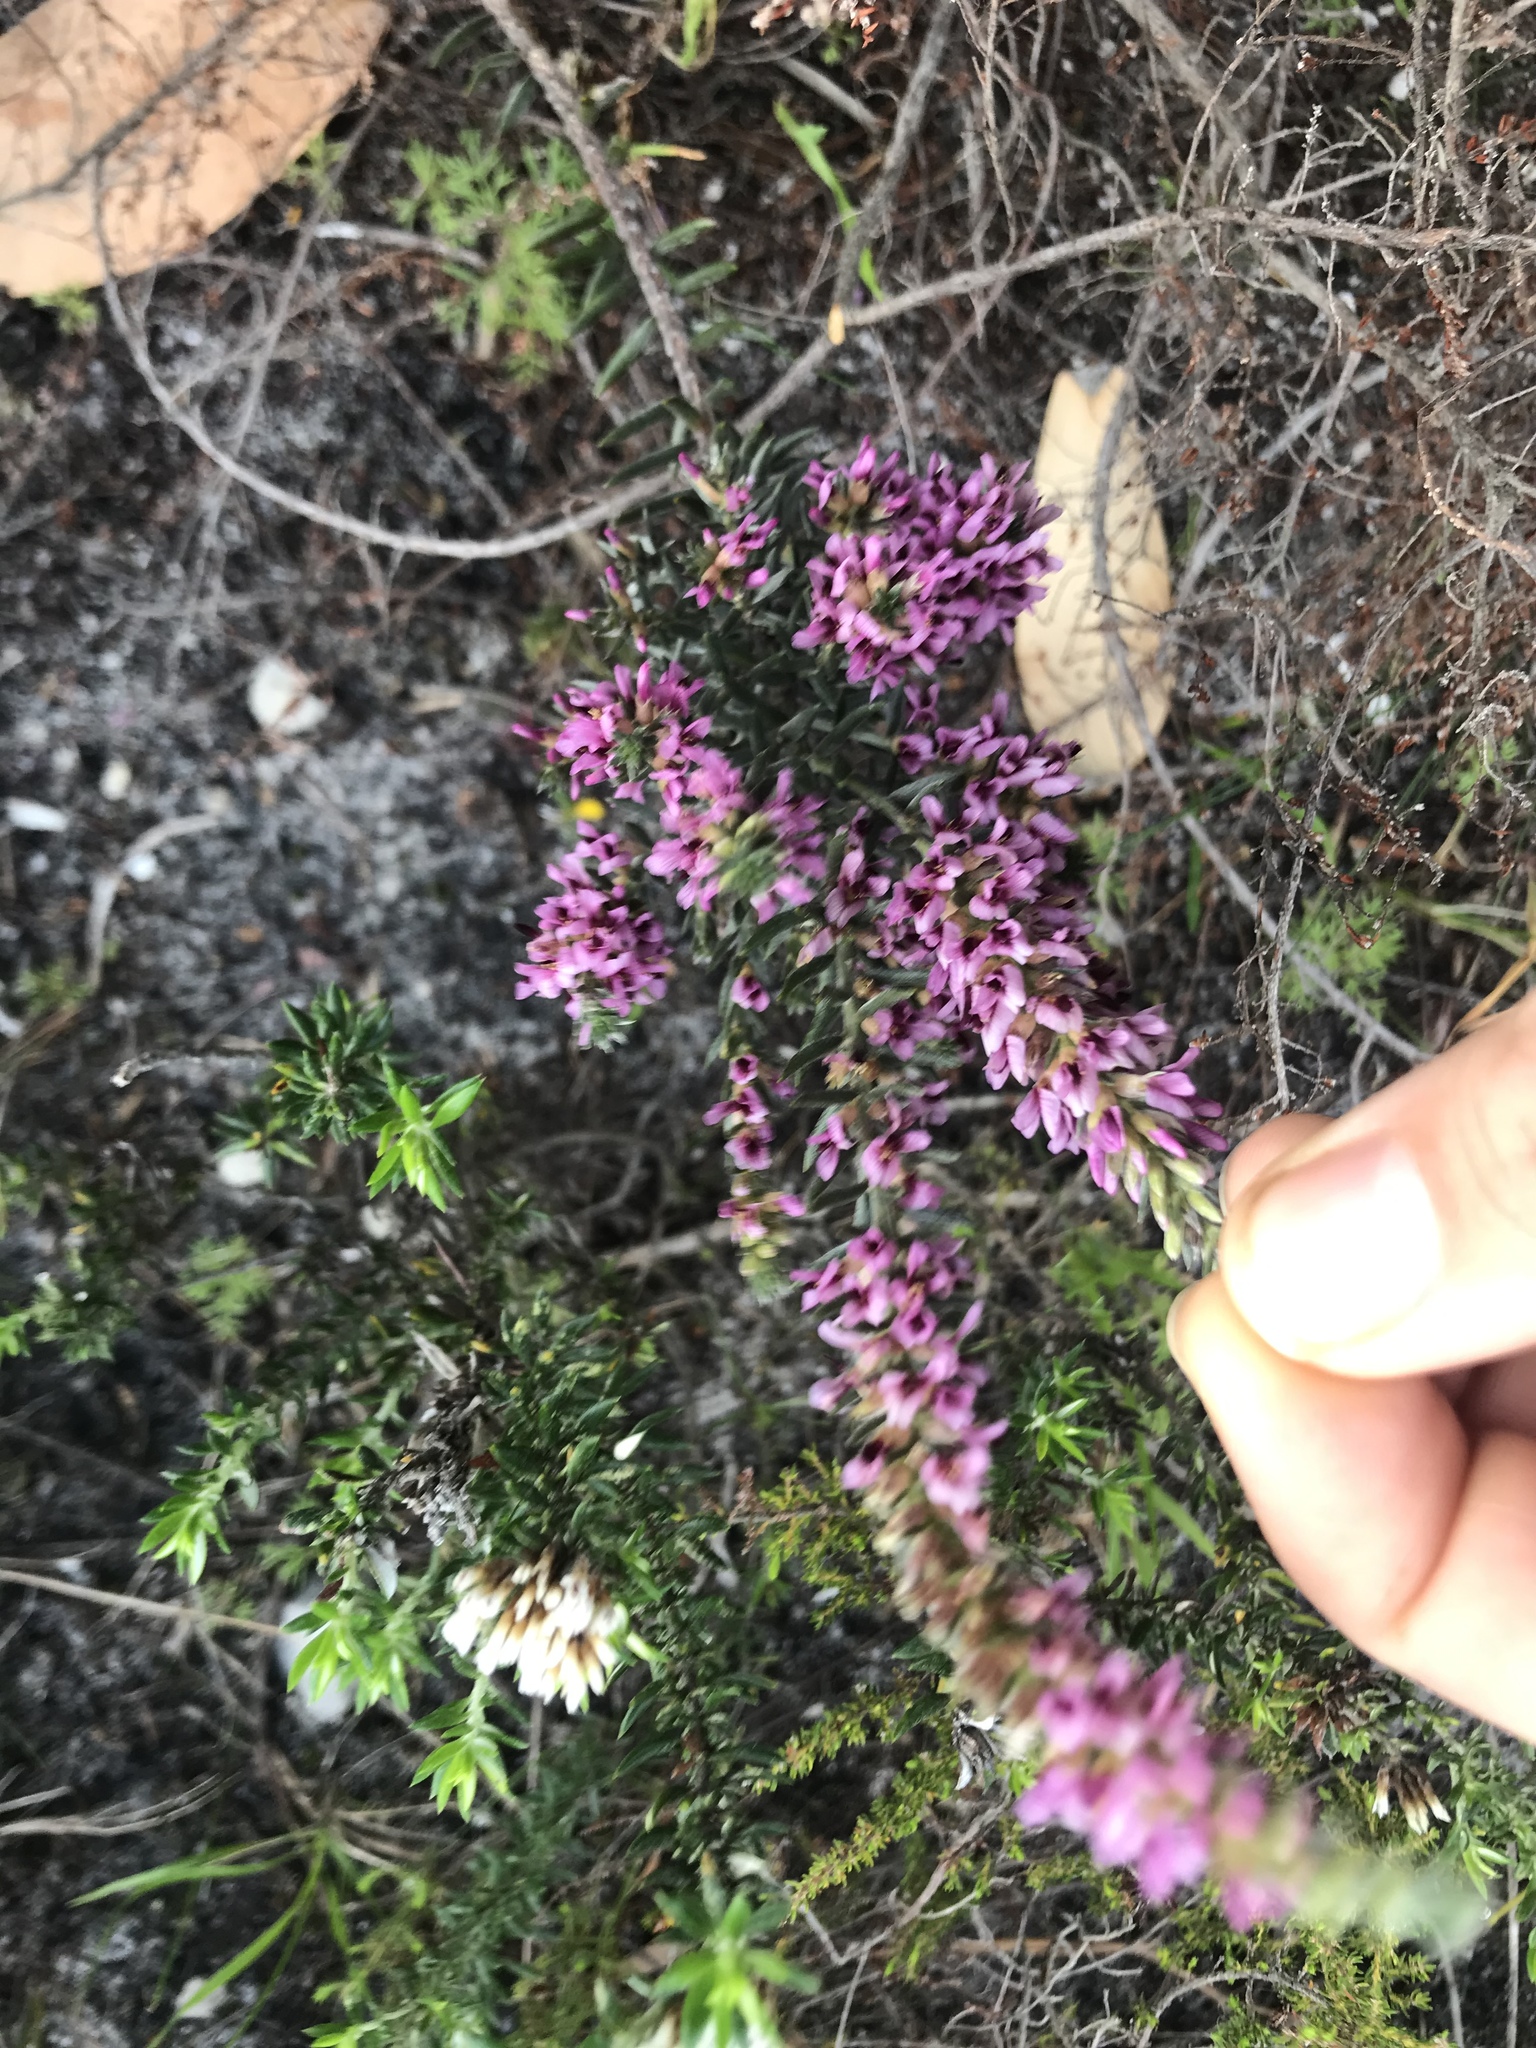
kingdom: Plantae
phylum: Tracheophyta
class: Magnoliopsida
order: Fabales
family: Fabaceae
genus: Amphithalea
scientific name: Amphithalea virgata
